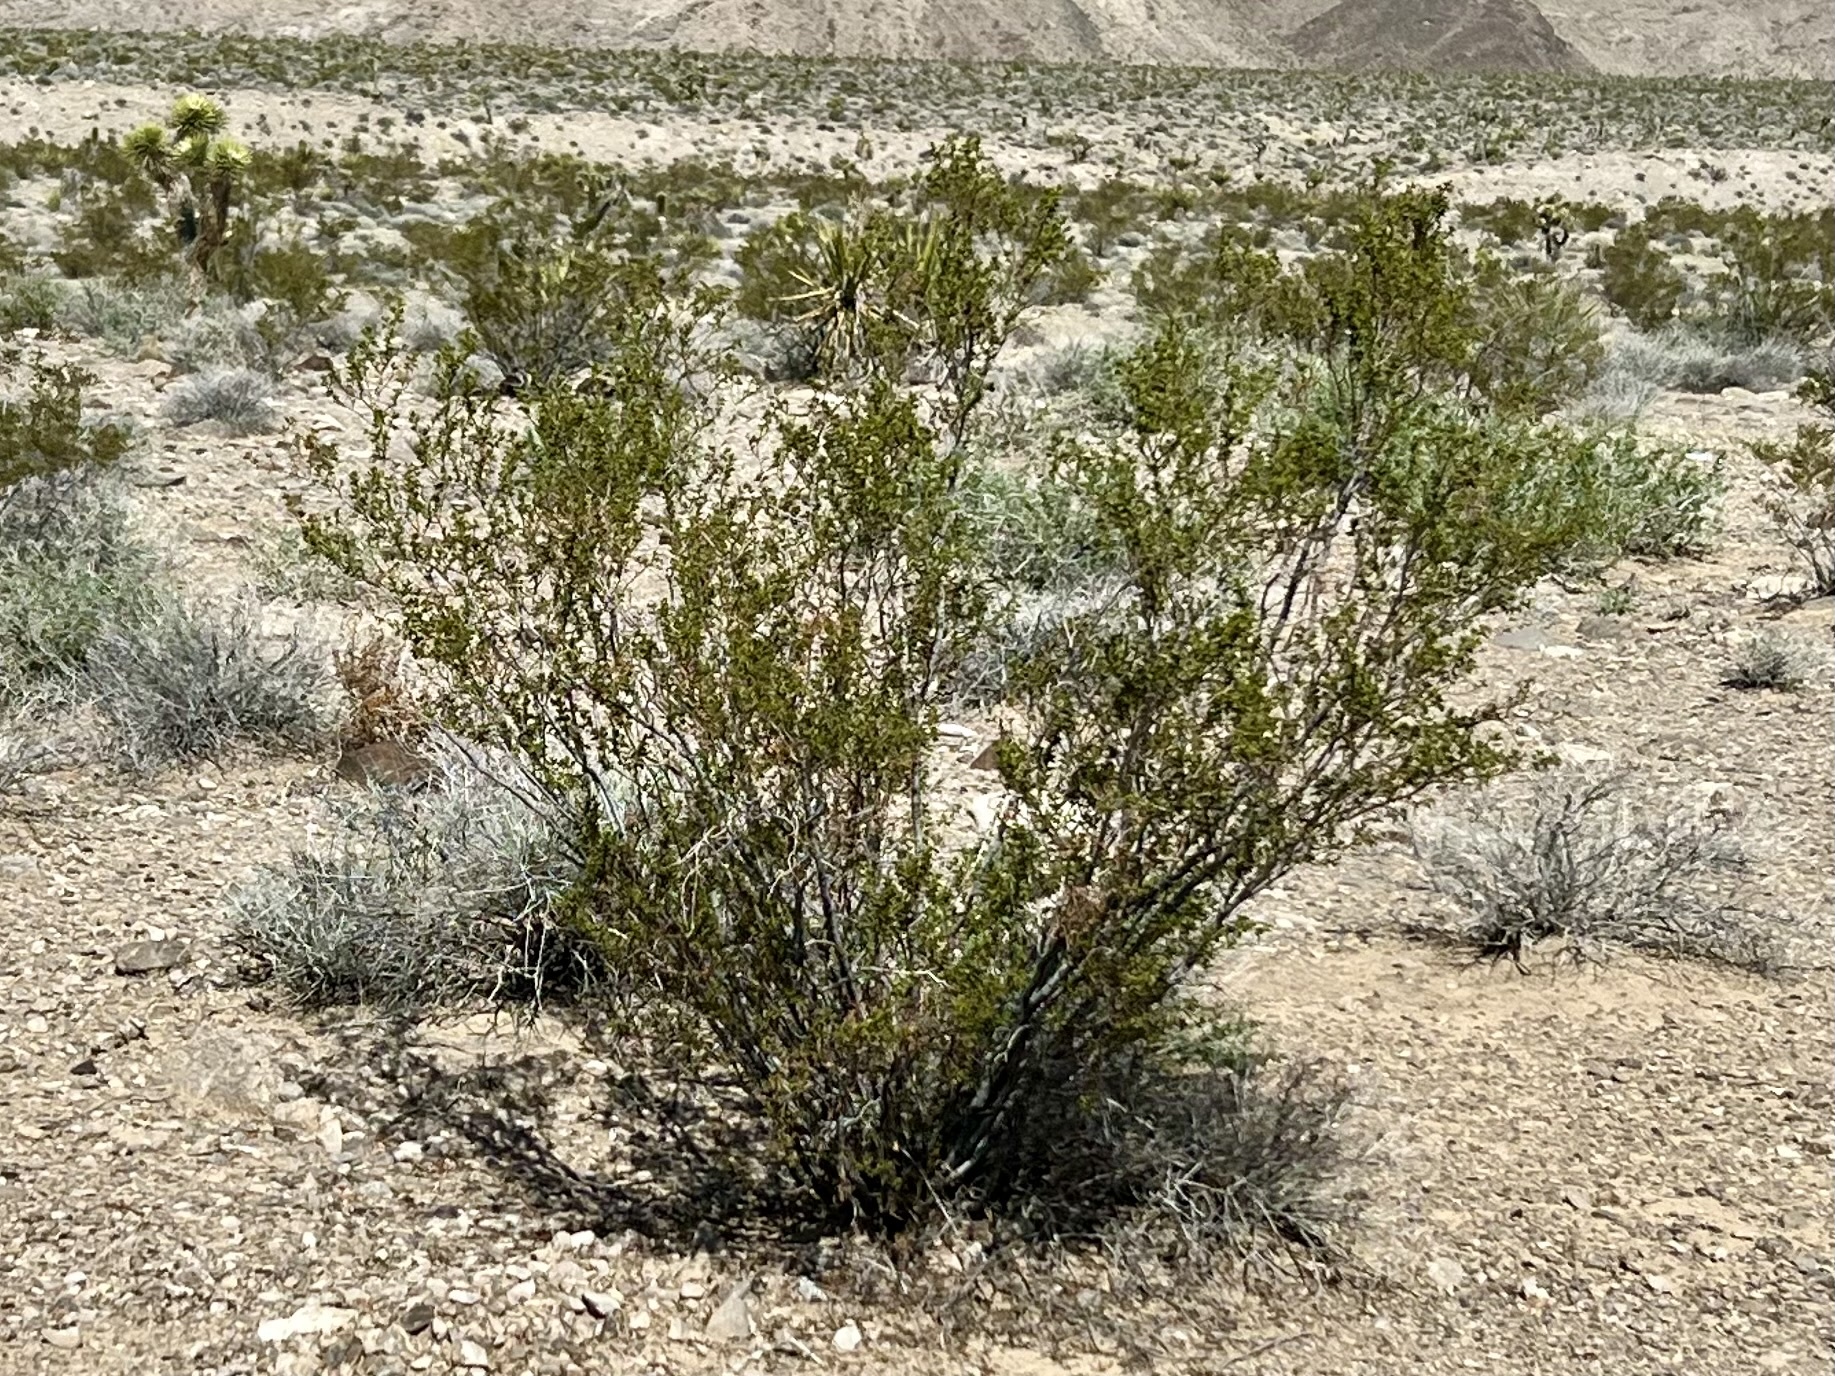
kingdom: Plantae
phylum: Tracheophyta
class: Magnoliopsida
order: Zygophyllales
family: Zygophyllaceae
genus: Larrea
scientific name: Larrea tridentata
